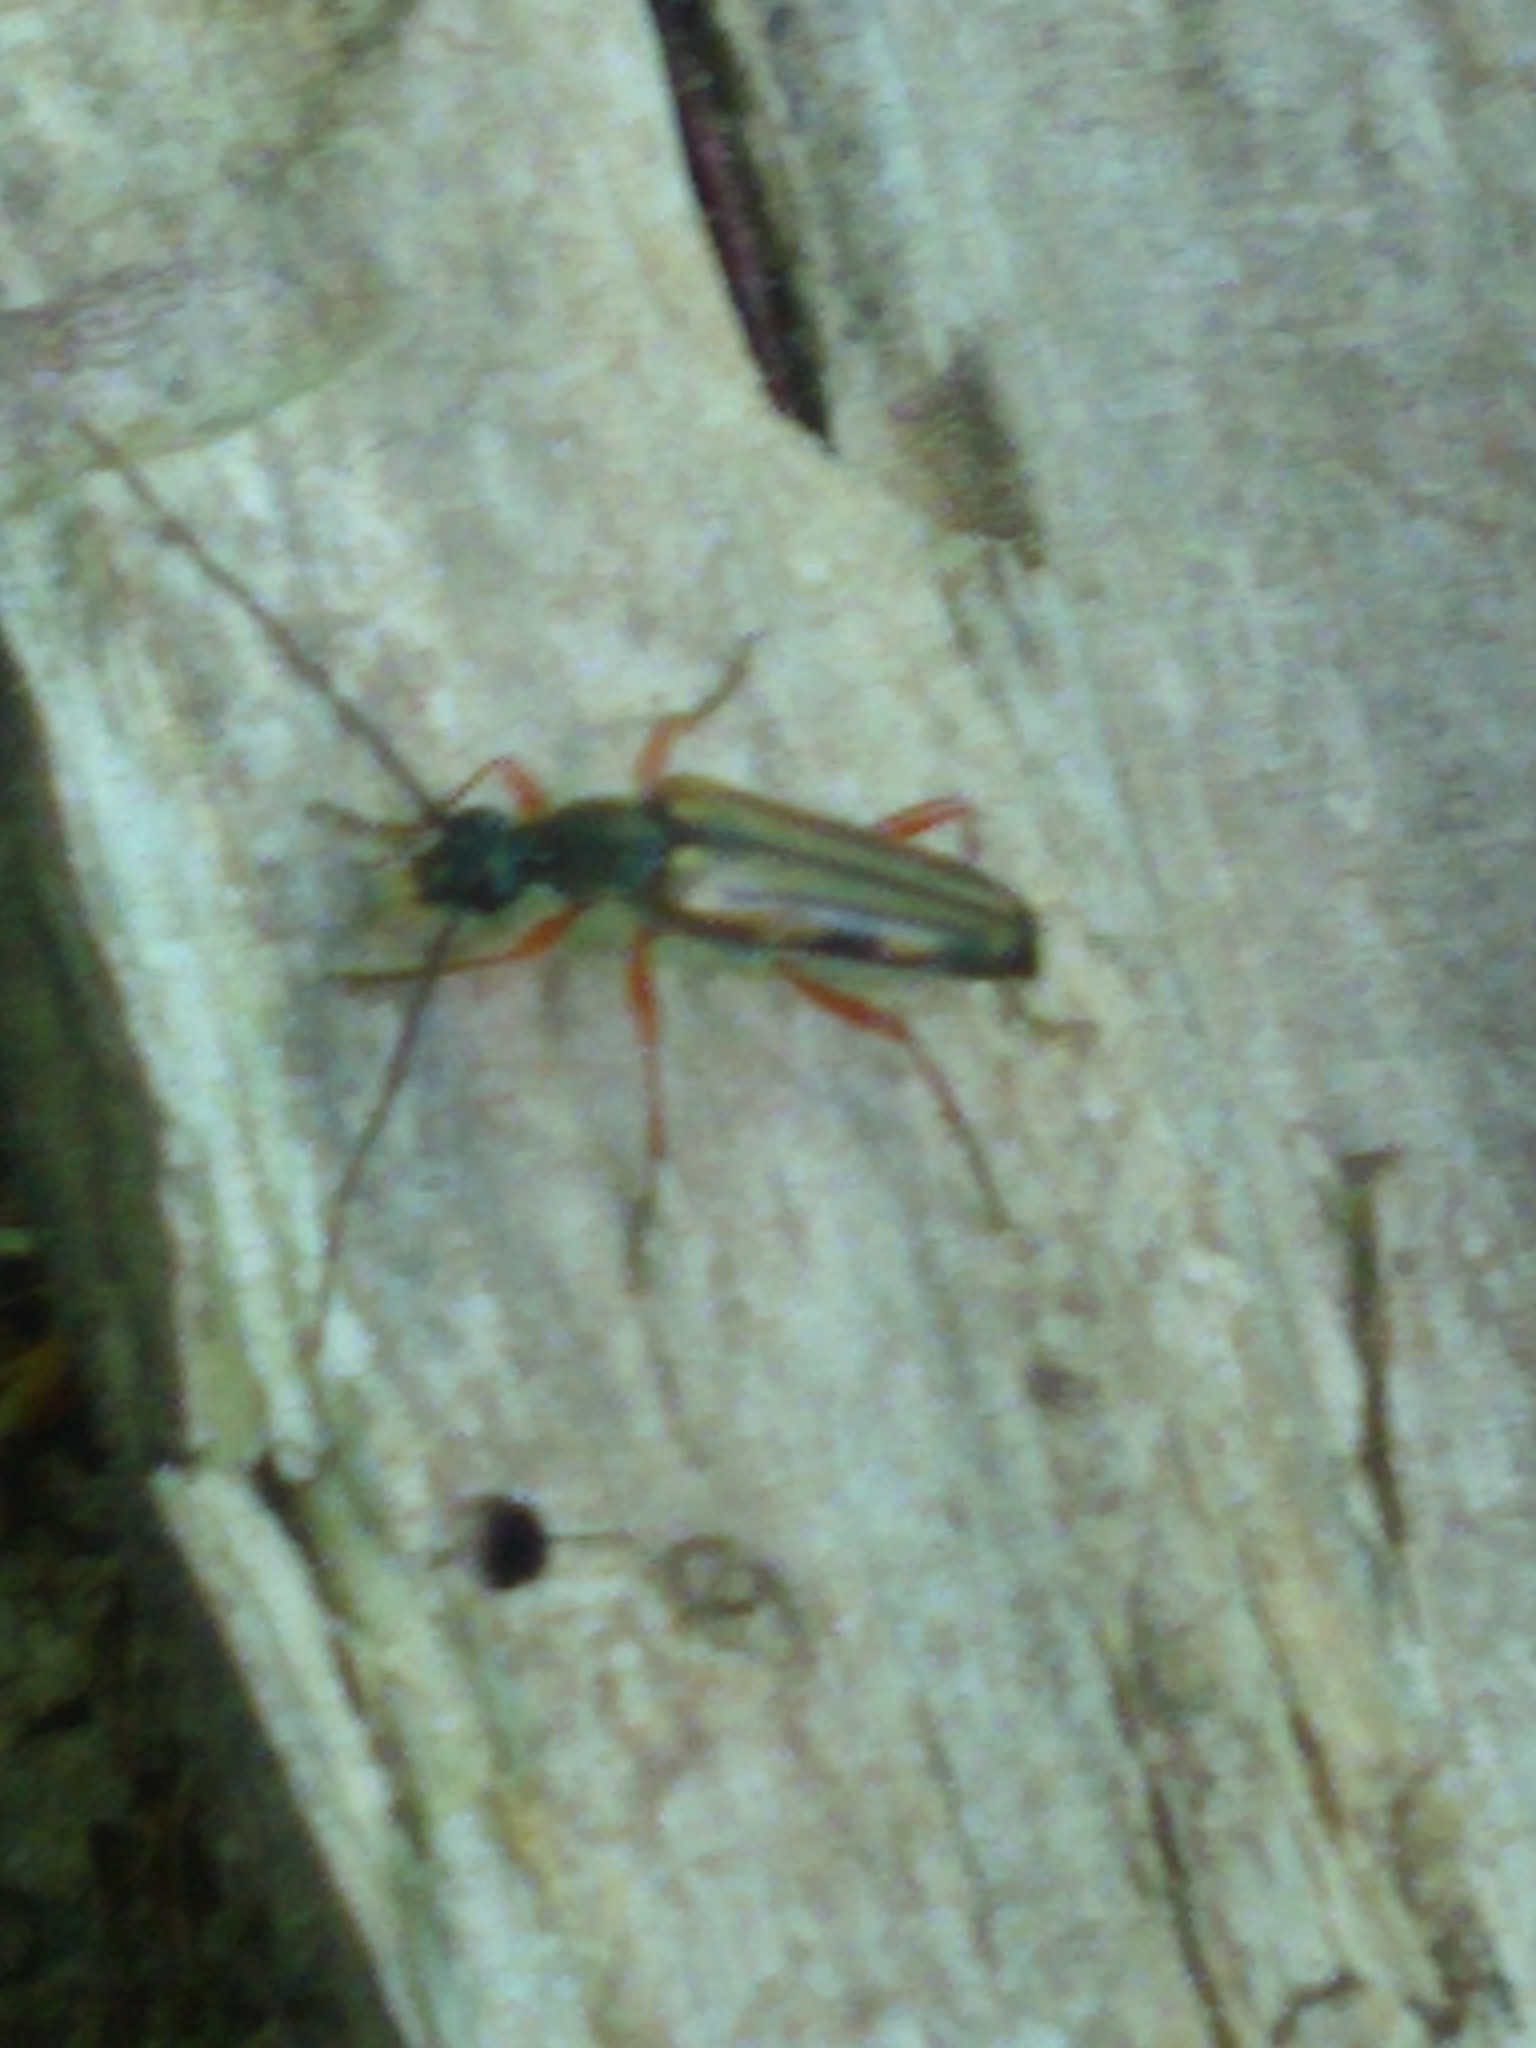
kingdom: Animalia
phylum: Arthropoda
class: Insecta
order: Coleoptera
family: Cerambycidae
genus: Analeptura
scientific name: Analeptura lineola
